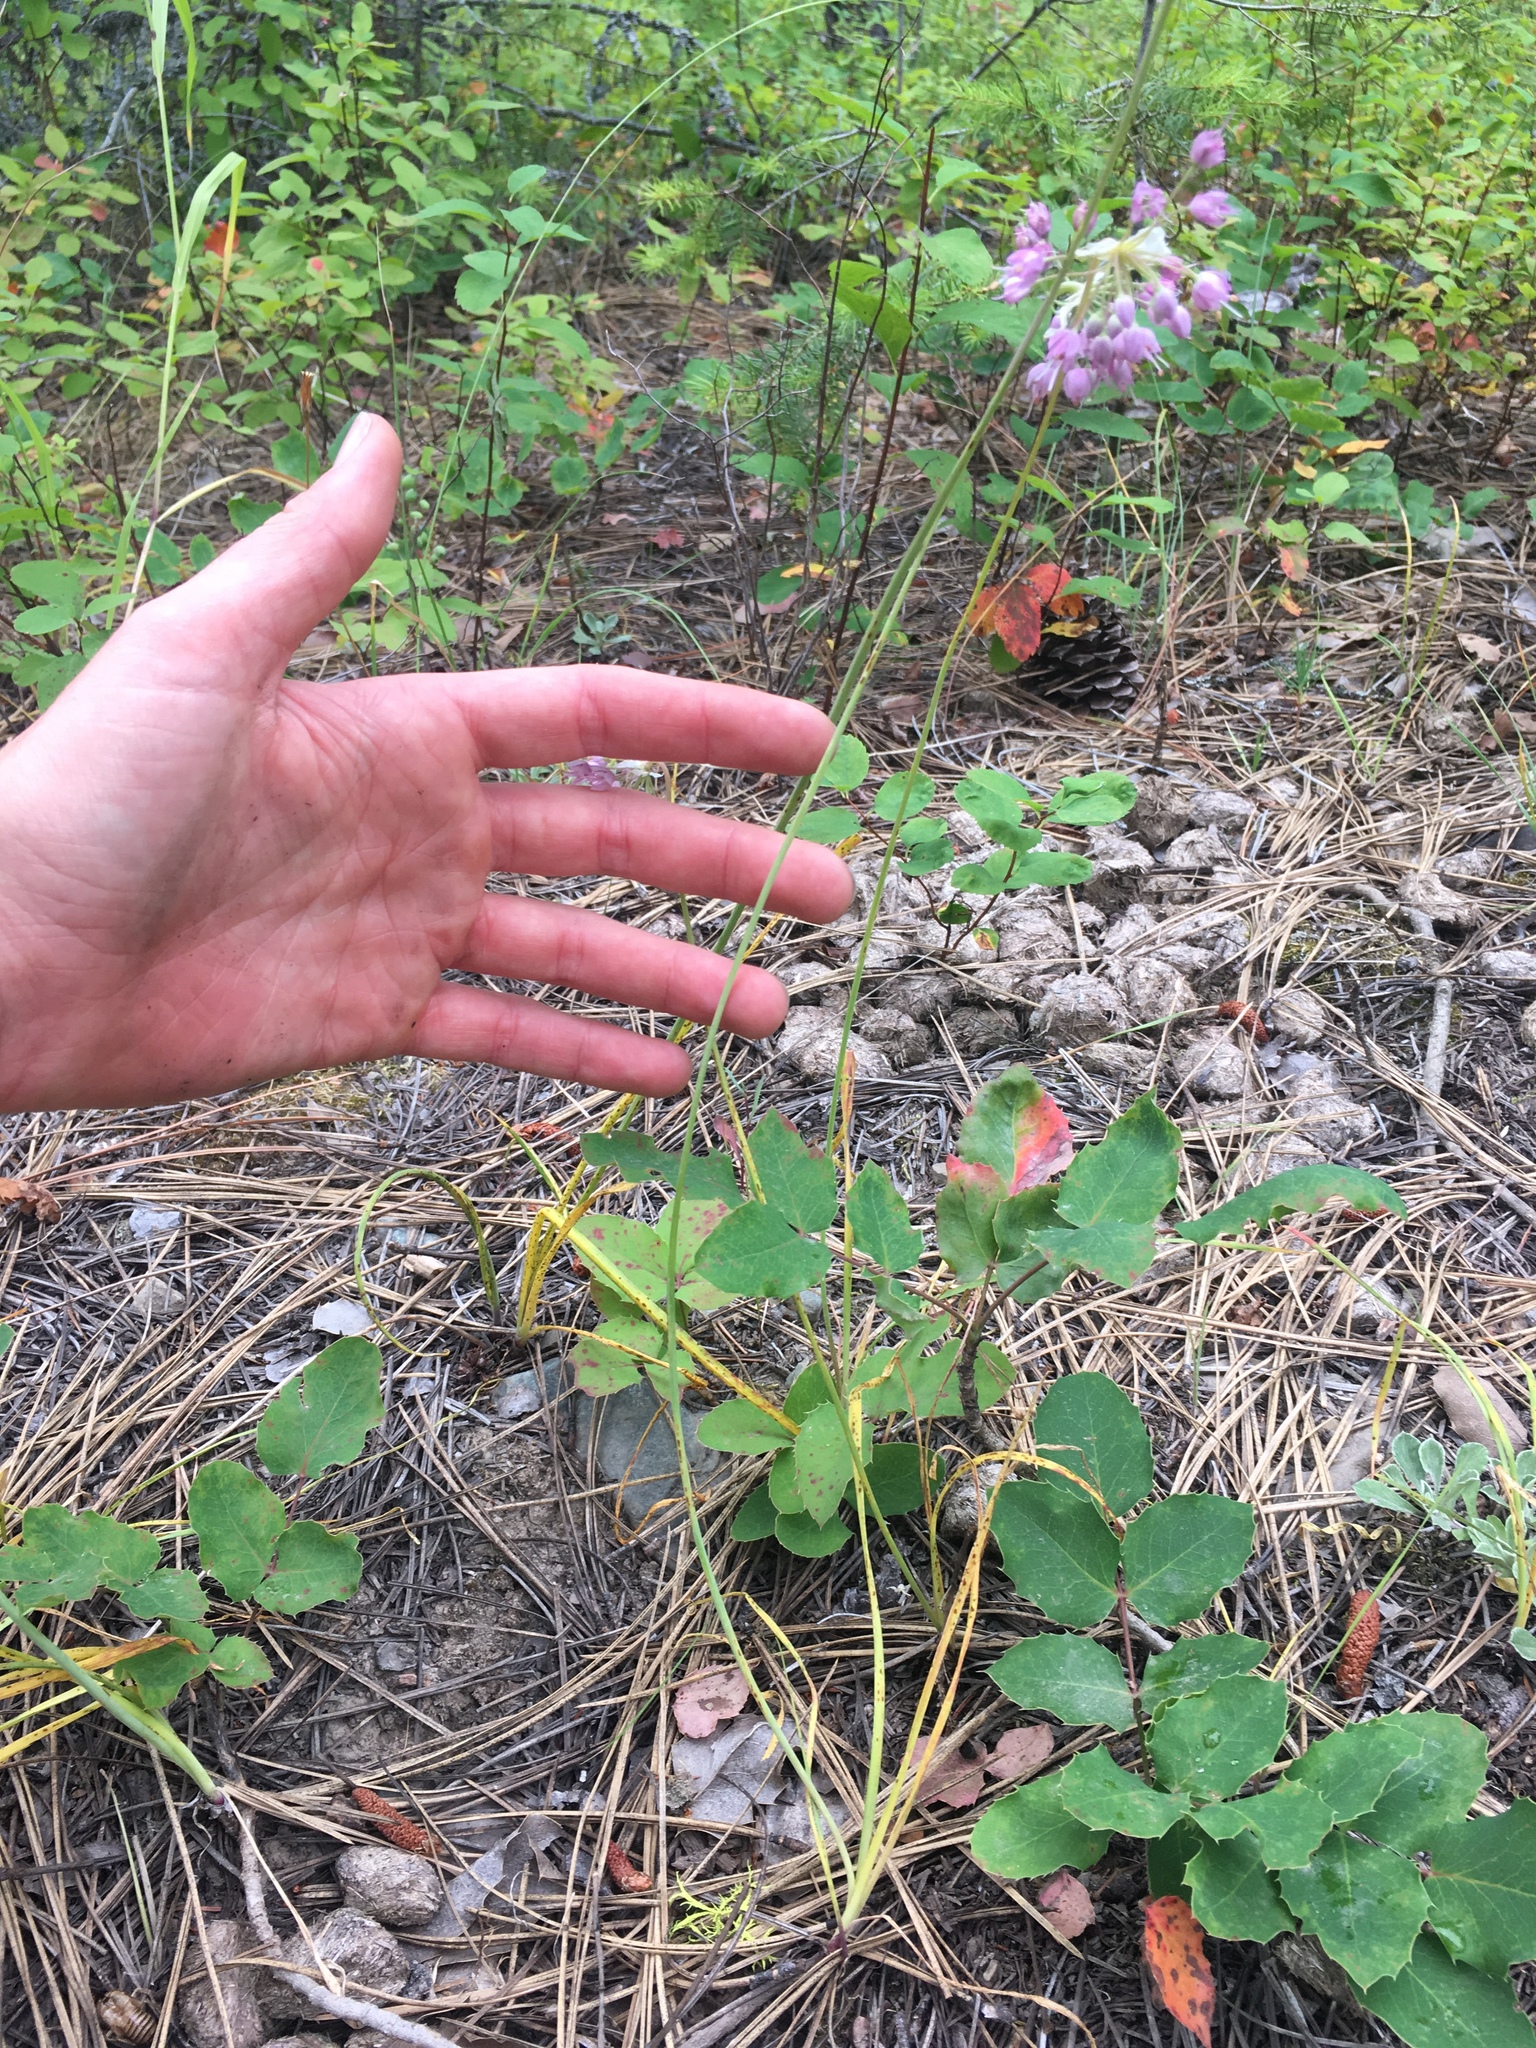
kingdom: Plantae
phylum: Tracheophyta
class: Liliopsida
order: Asparagales
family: Amaryllidaceae
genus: Allium
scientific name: Allium cernuum
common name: Nodding onion
